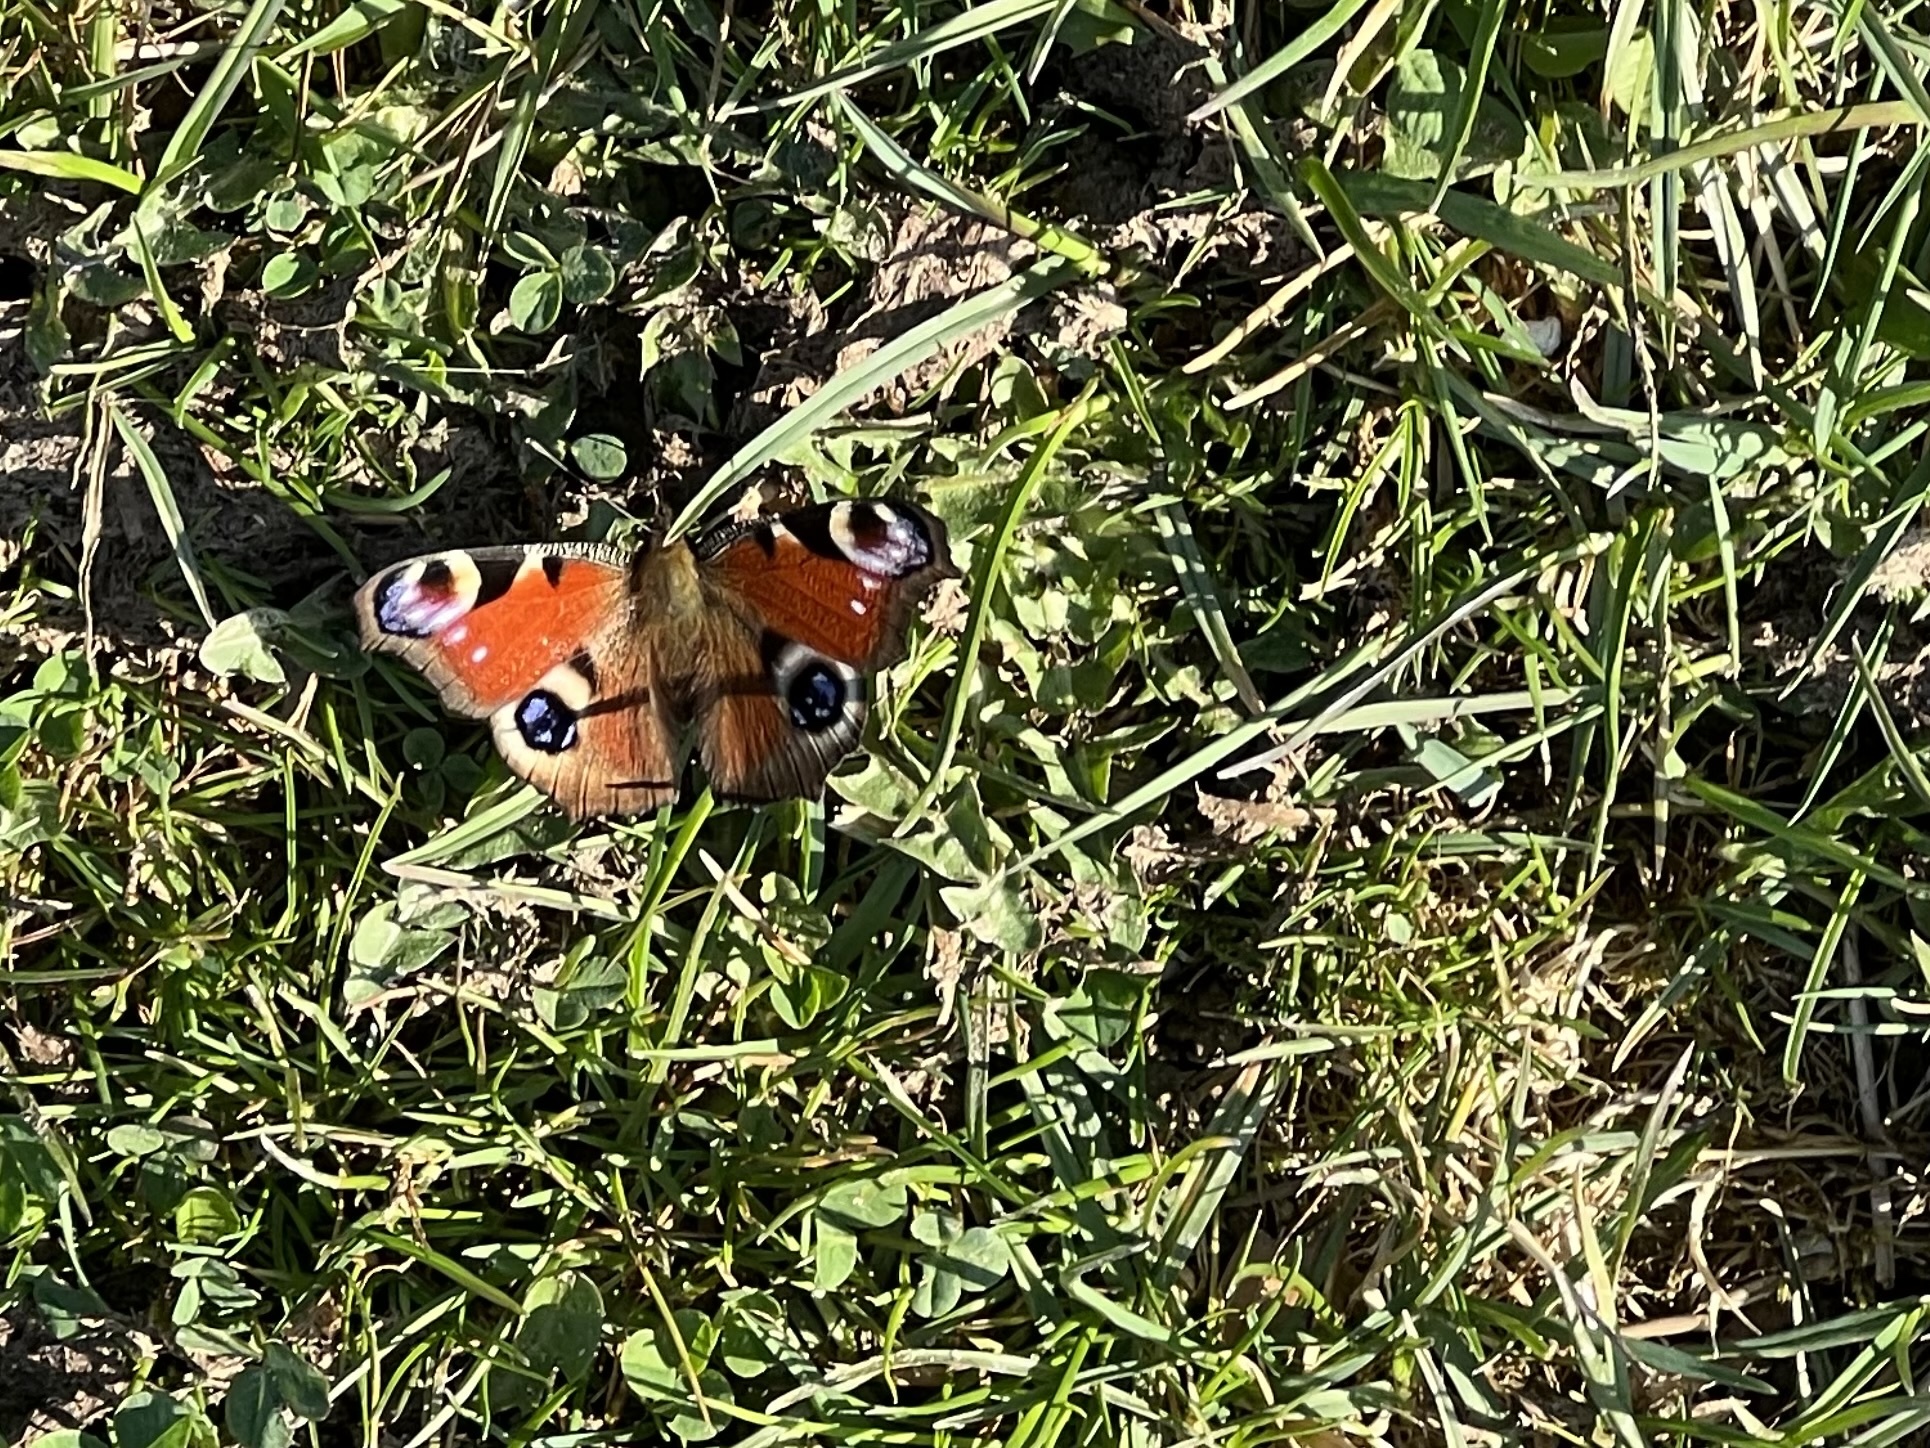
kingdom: Animalia
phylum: Arthropoda
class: Insecta
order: Lepidoptera
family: Nymphalidae
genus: Aglais
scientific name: Aglais io
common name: Peacock
